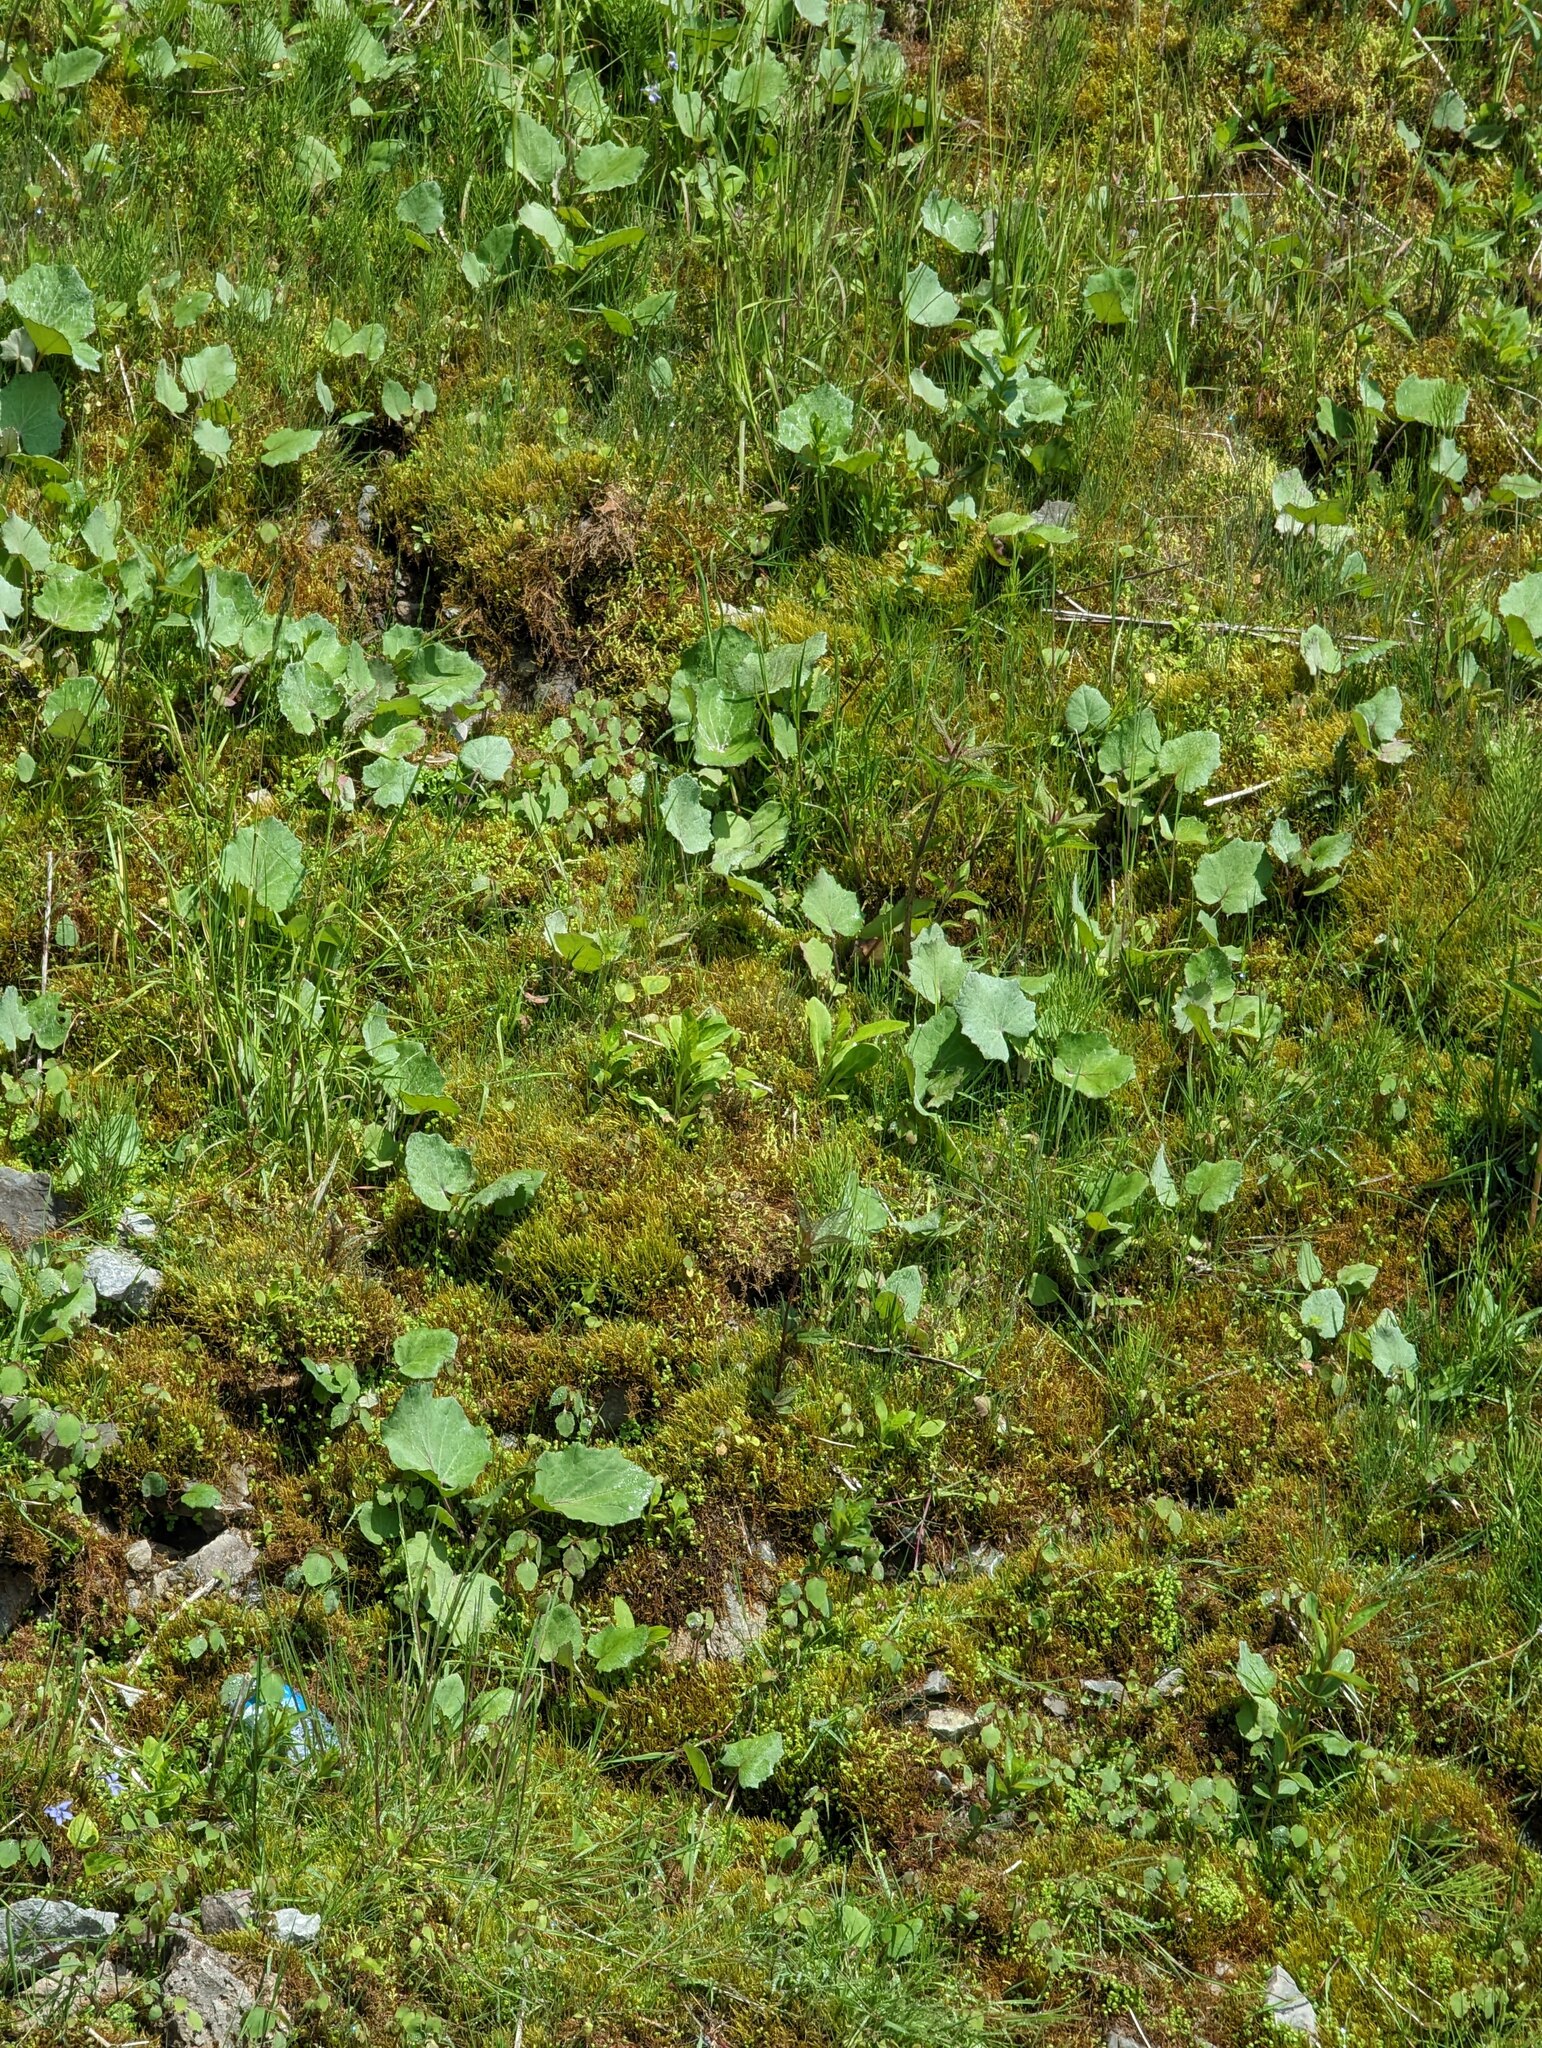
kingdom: Plantae
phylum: Tracheophyta
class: Magnoliopsida
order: Asterales
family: Asteraceae
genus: Tussilago
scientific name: Tussilago farfara
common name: Coltsfoot
